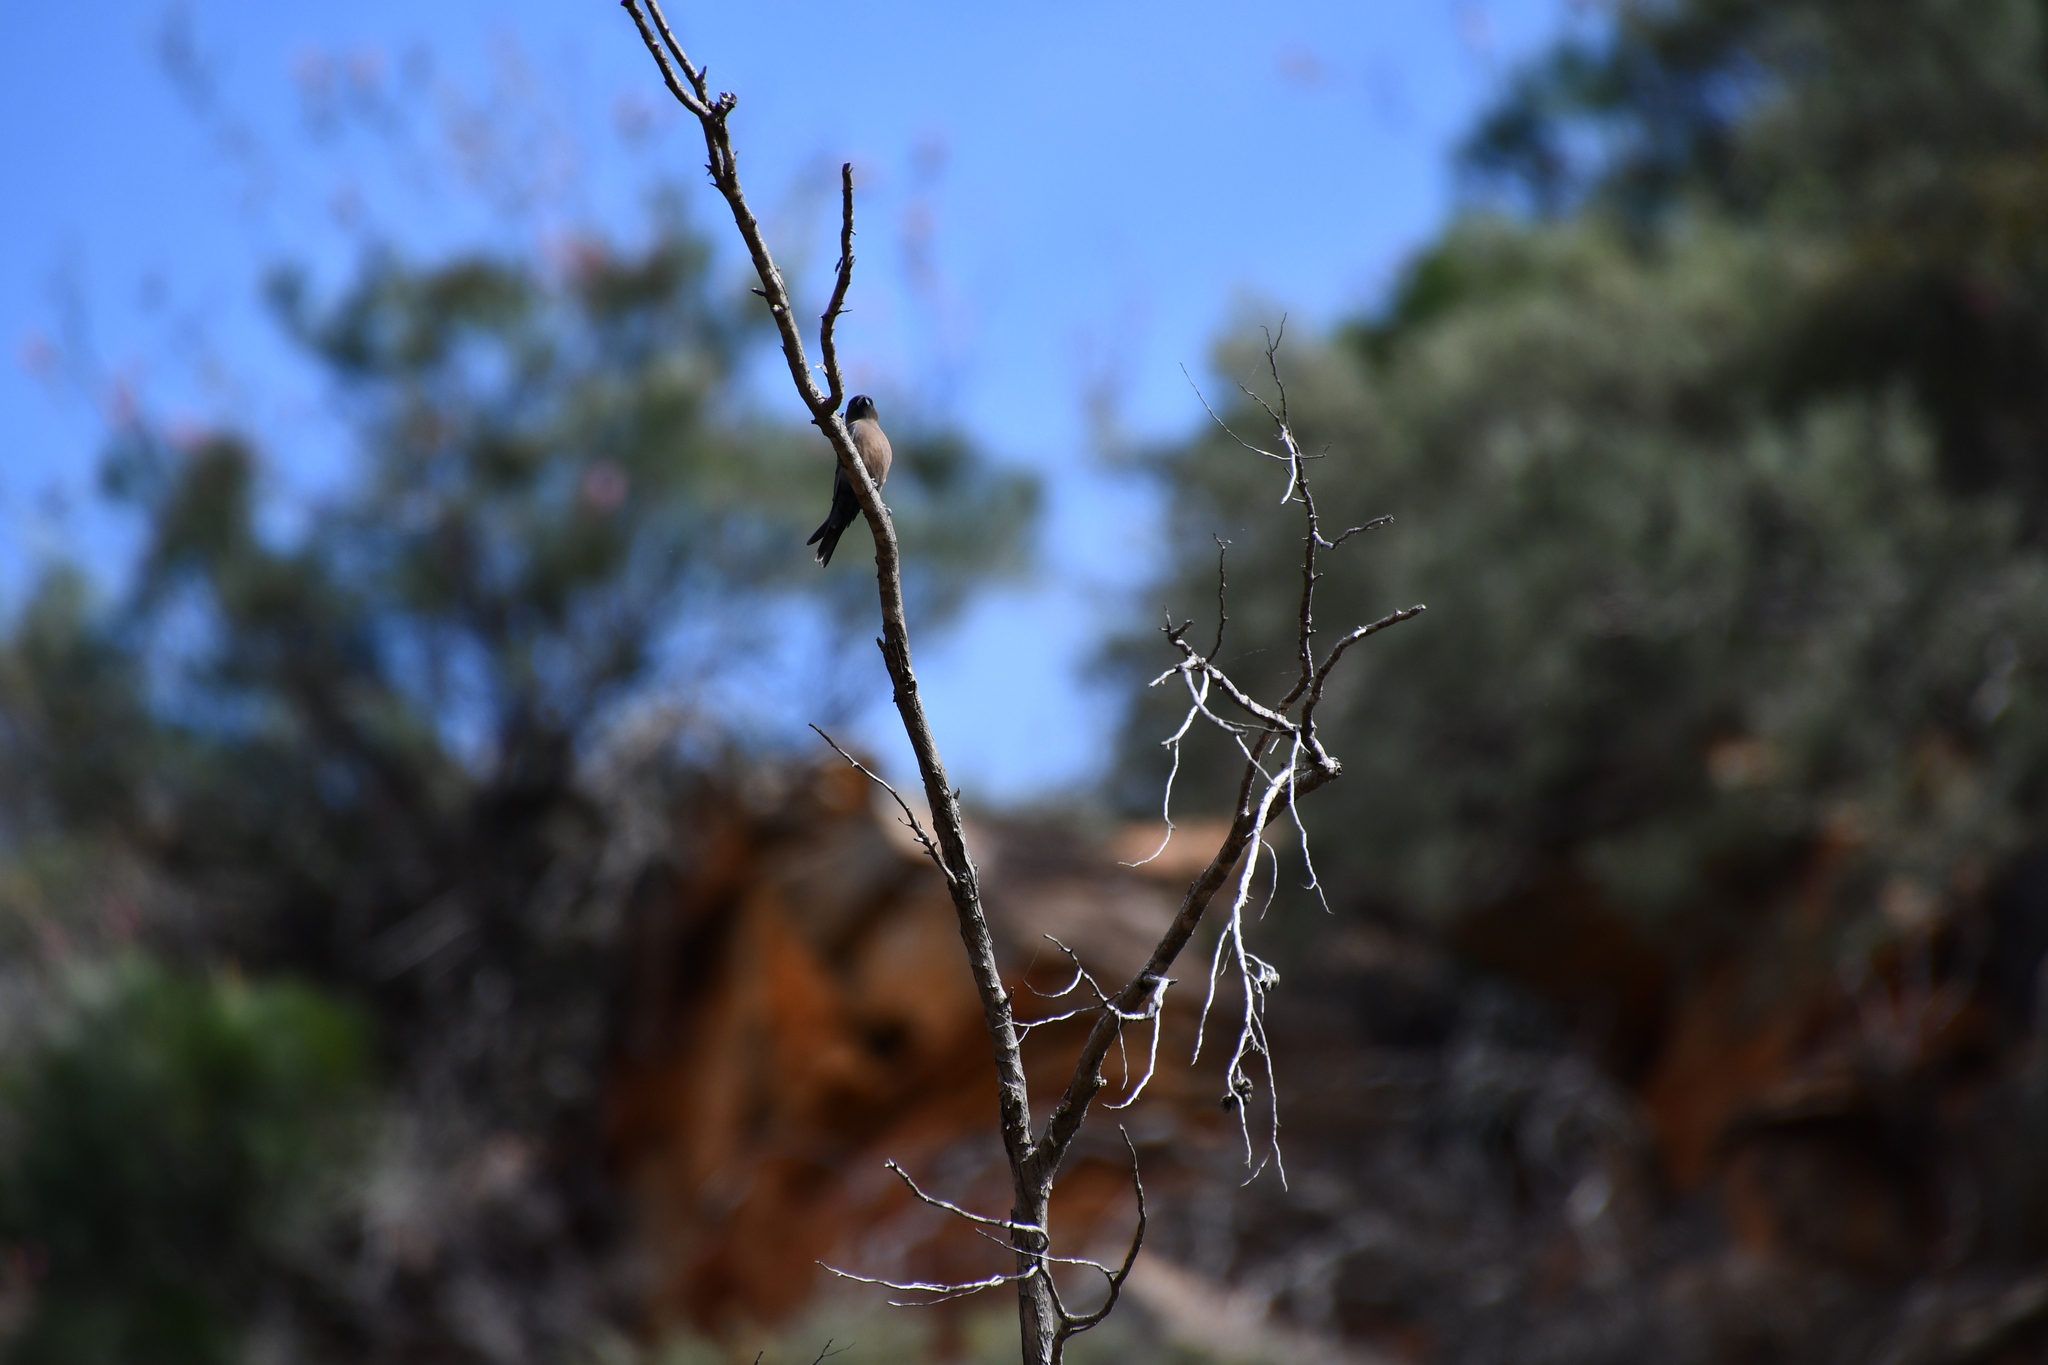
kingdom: Animalia
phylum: Chordata
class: Aves
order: Passeriformes
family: Artamidae
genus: Artamus
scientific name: Artamus cyanopterus
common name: Dusky woodswallow
